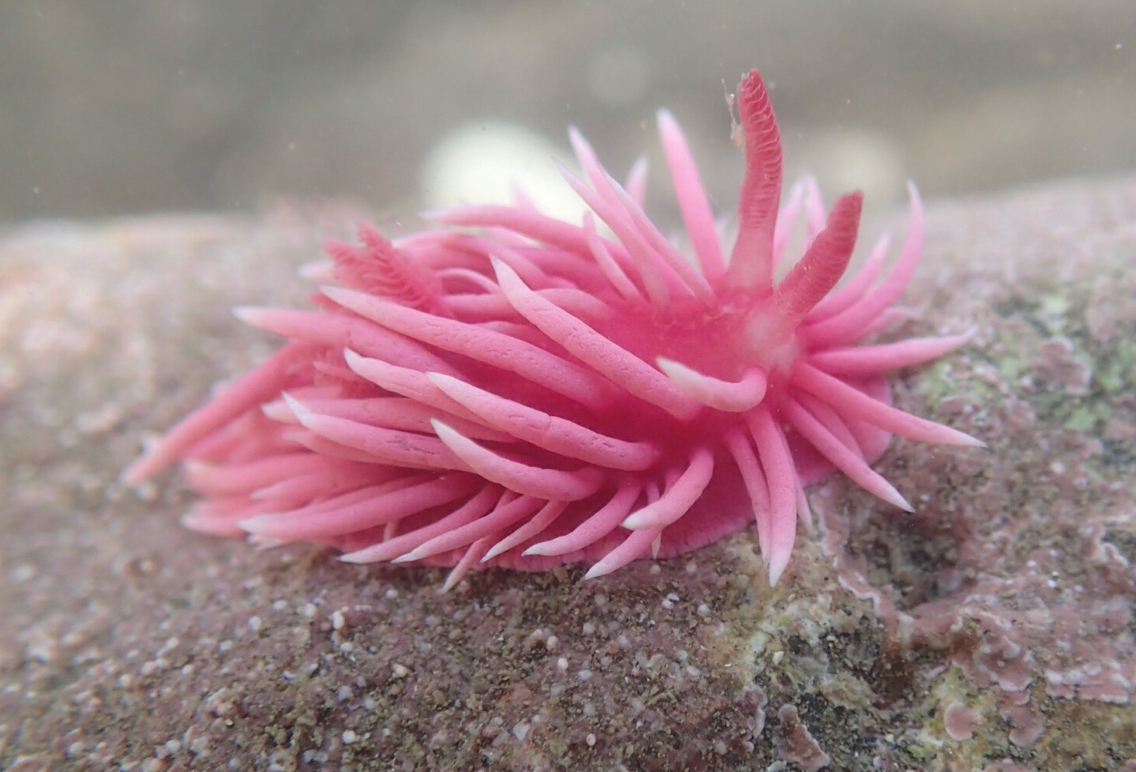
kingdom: Animalia
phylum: Mollusca
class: Gastropoda
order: Nudibranchia
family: Goniodorididae
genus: Okenia
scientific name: Okenia
